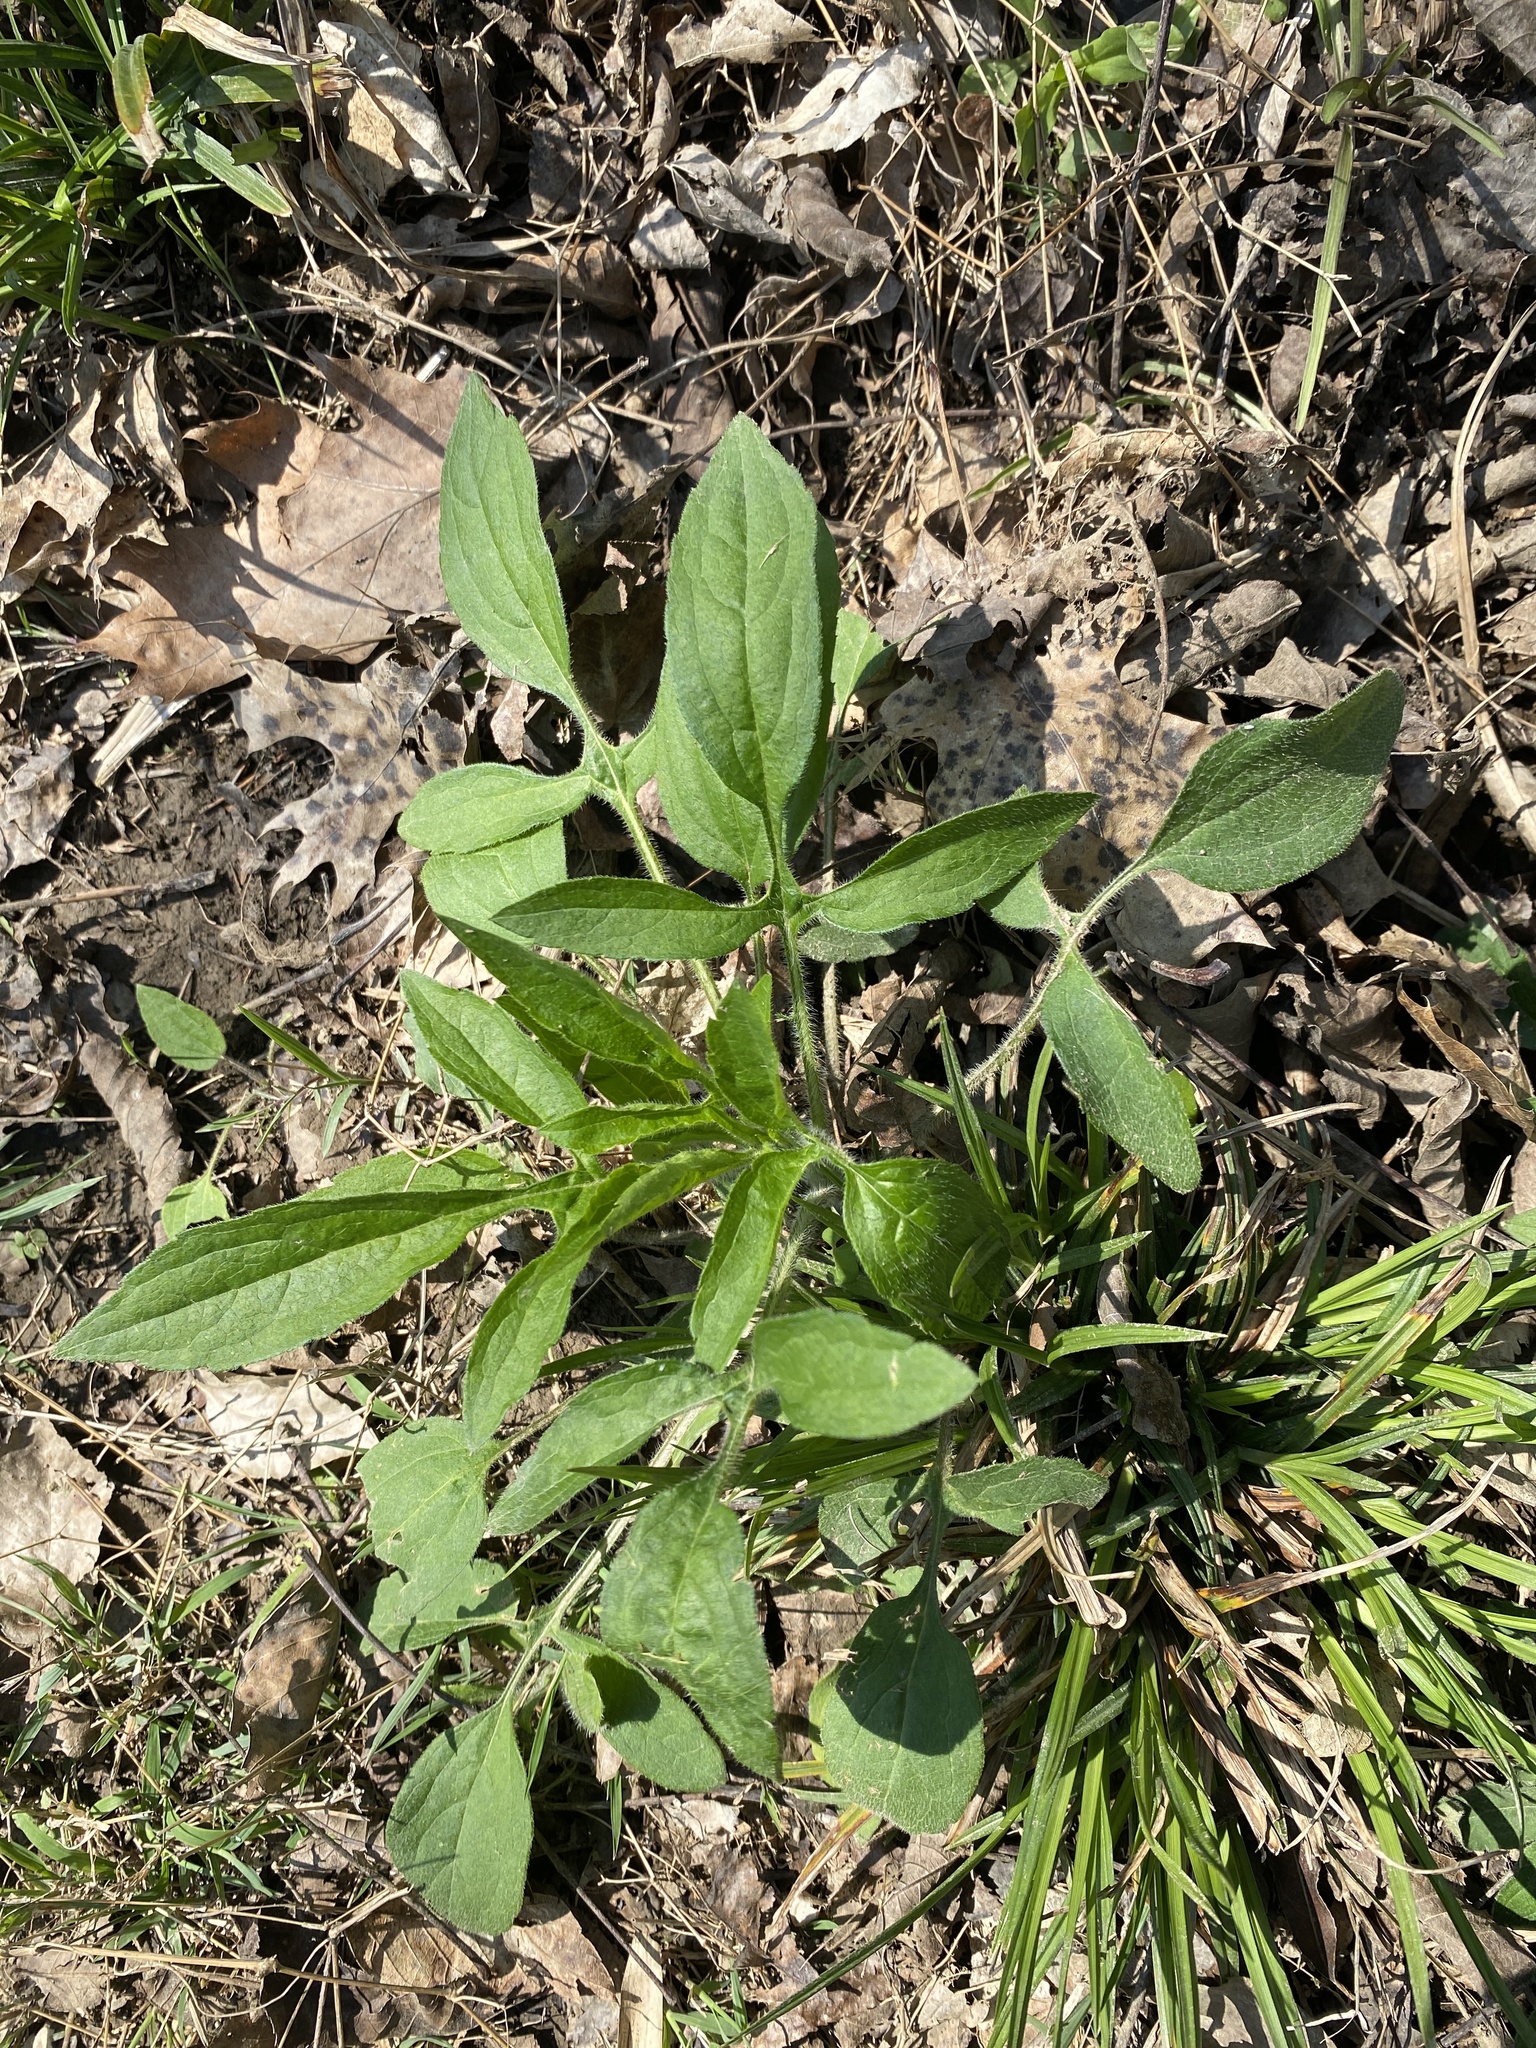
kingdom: Plantae
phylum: Tracheophyta
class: Magnoliopsida
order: Asterales
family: Asteraceae
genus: Rudbeckia
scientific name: Rudbeckia triloba
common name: Thin-leaved coneflower
